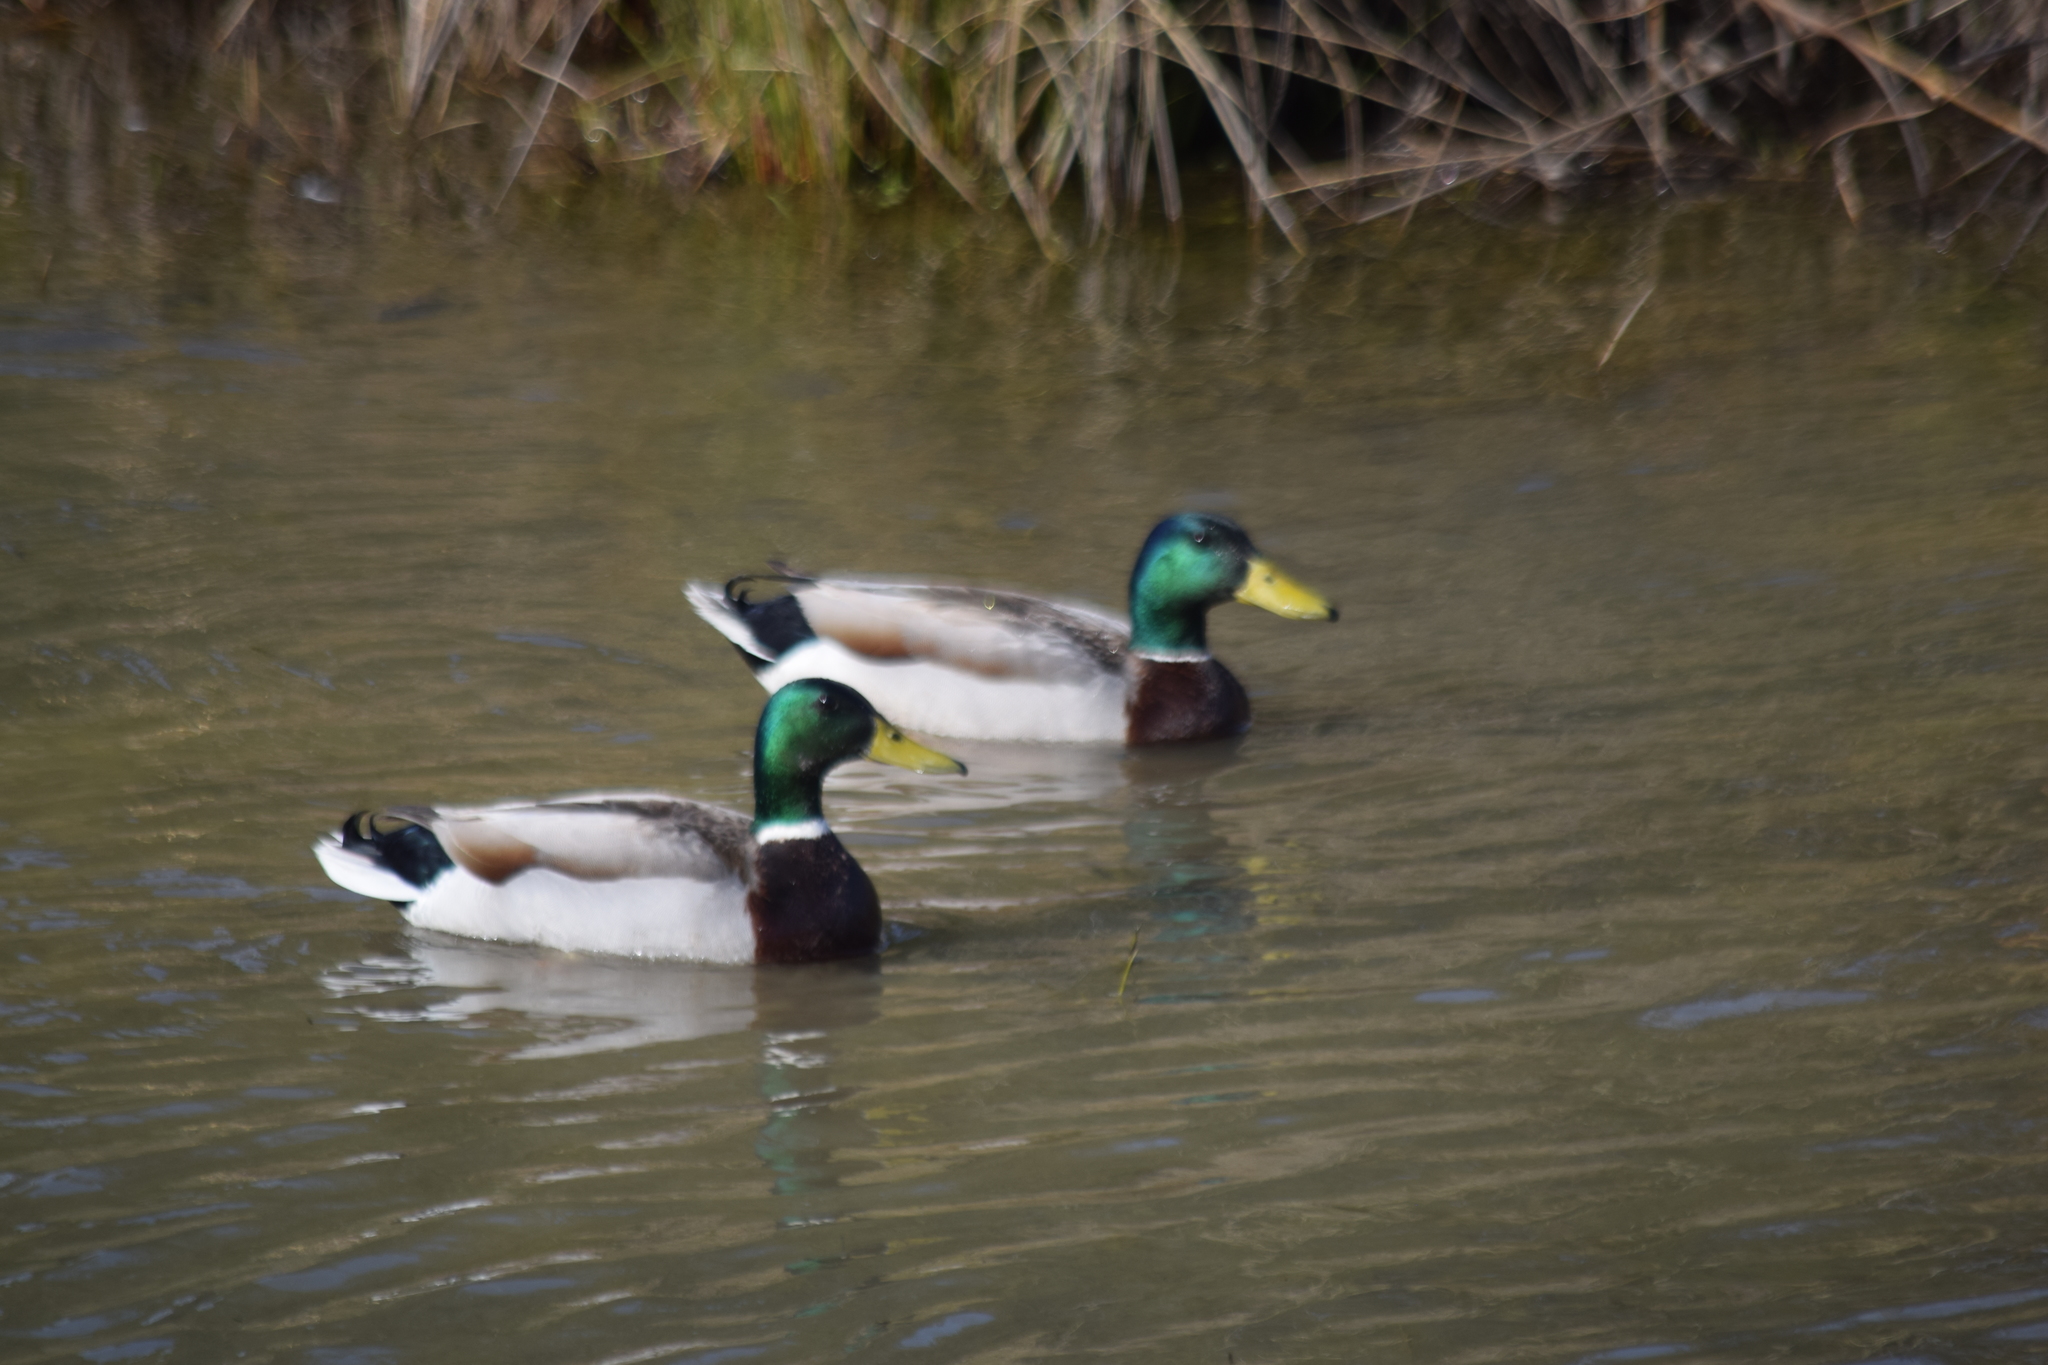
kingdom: Animalia
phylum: Chordata
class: Aves
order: Anseriformes
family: Anatidae
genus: Anas
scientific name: Anas platyrhynchos
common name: Mallard
